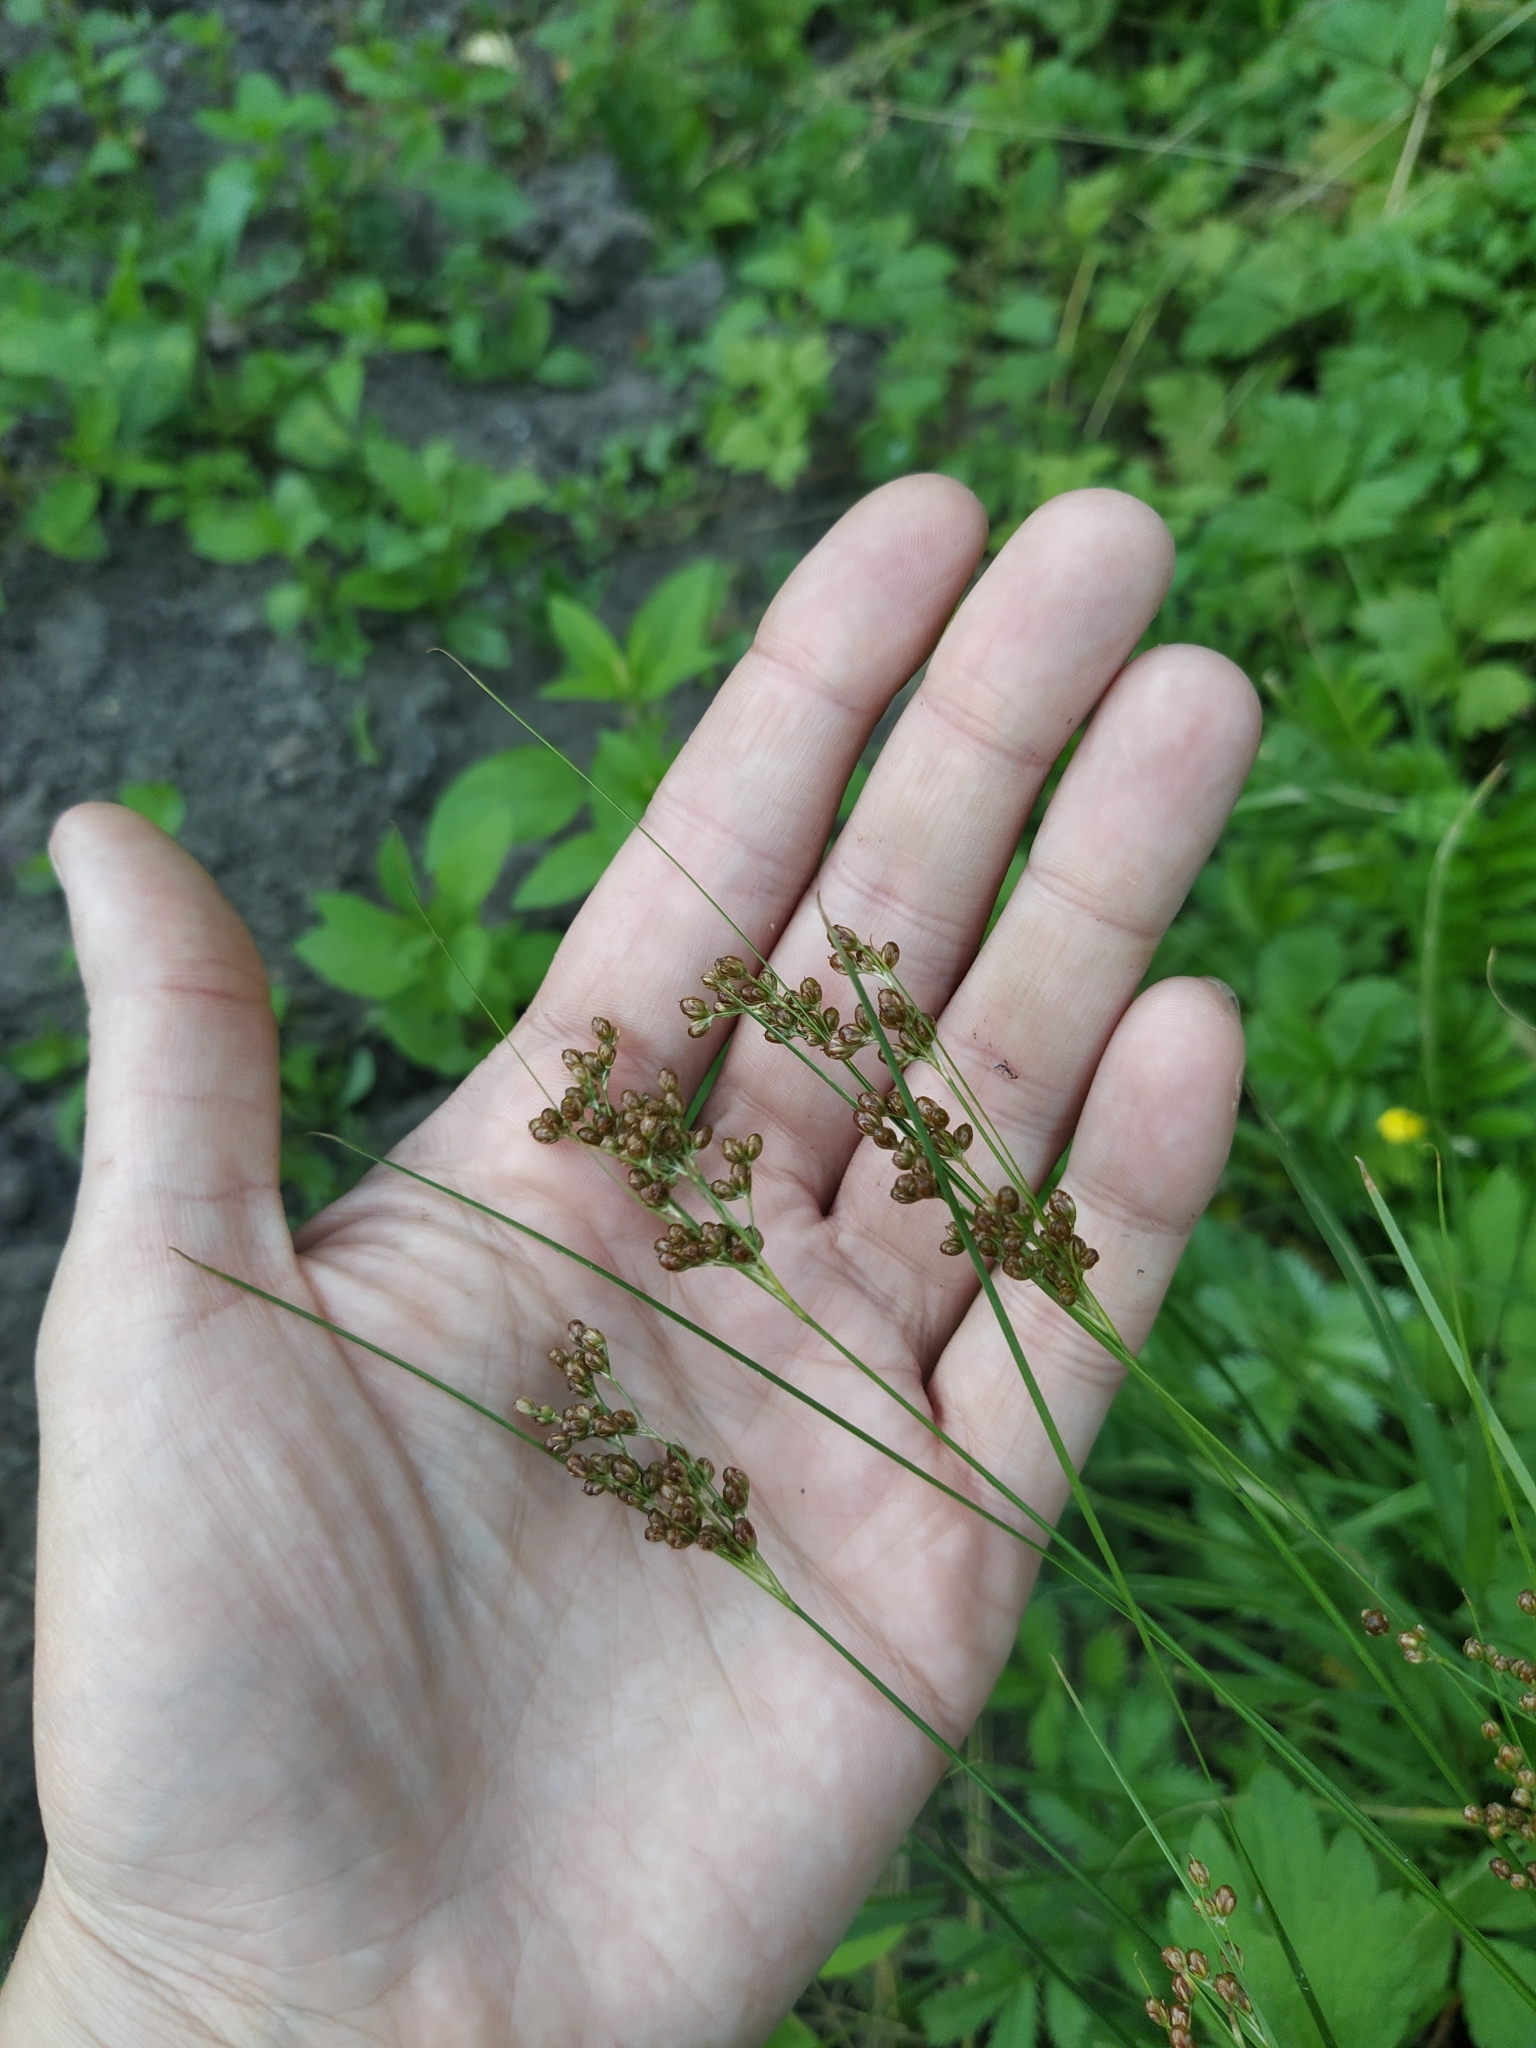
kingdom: Plantae
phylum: Tracheophyta
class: Liliopsida
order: Poales
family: Juncaceae
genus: Juncus
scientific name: Juncus compressus
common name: Round-fruited rush
